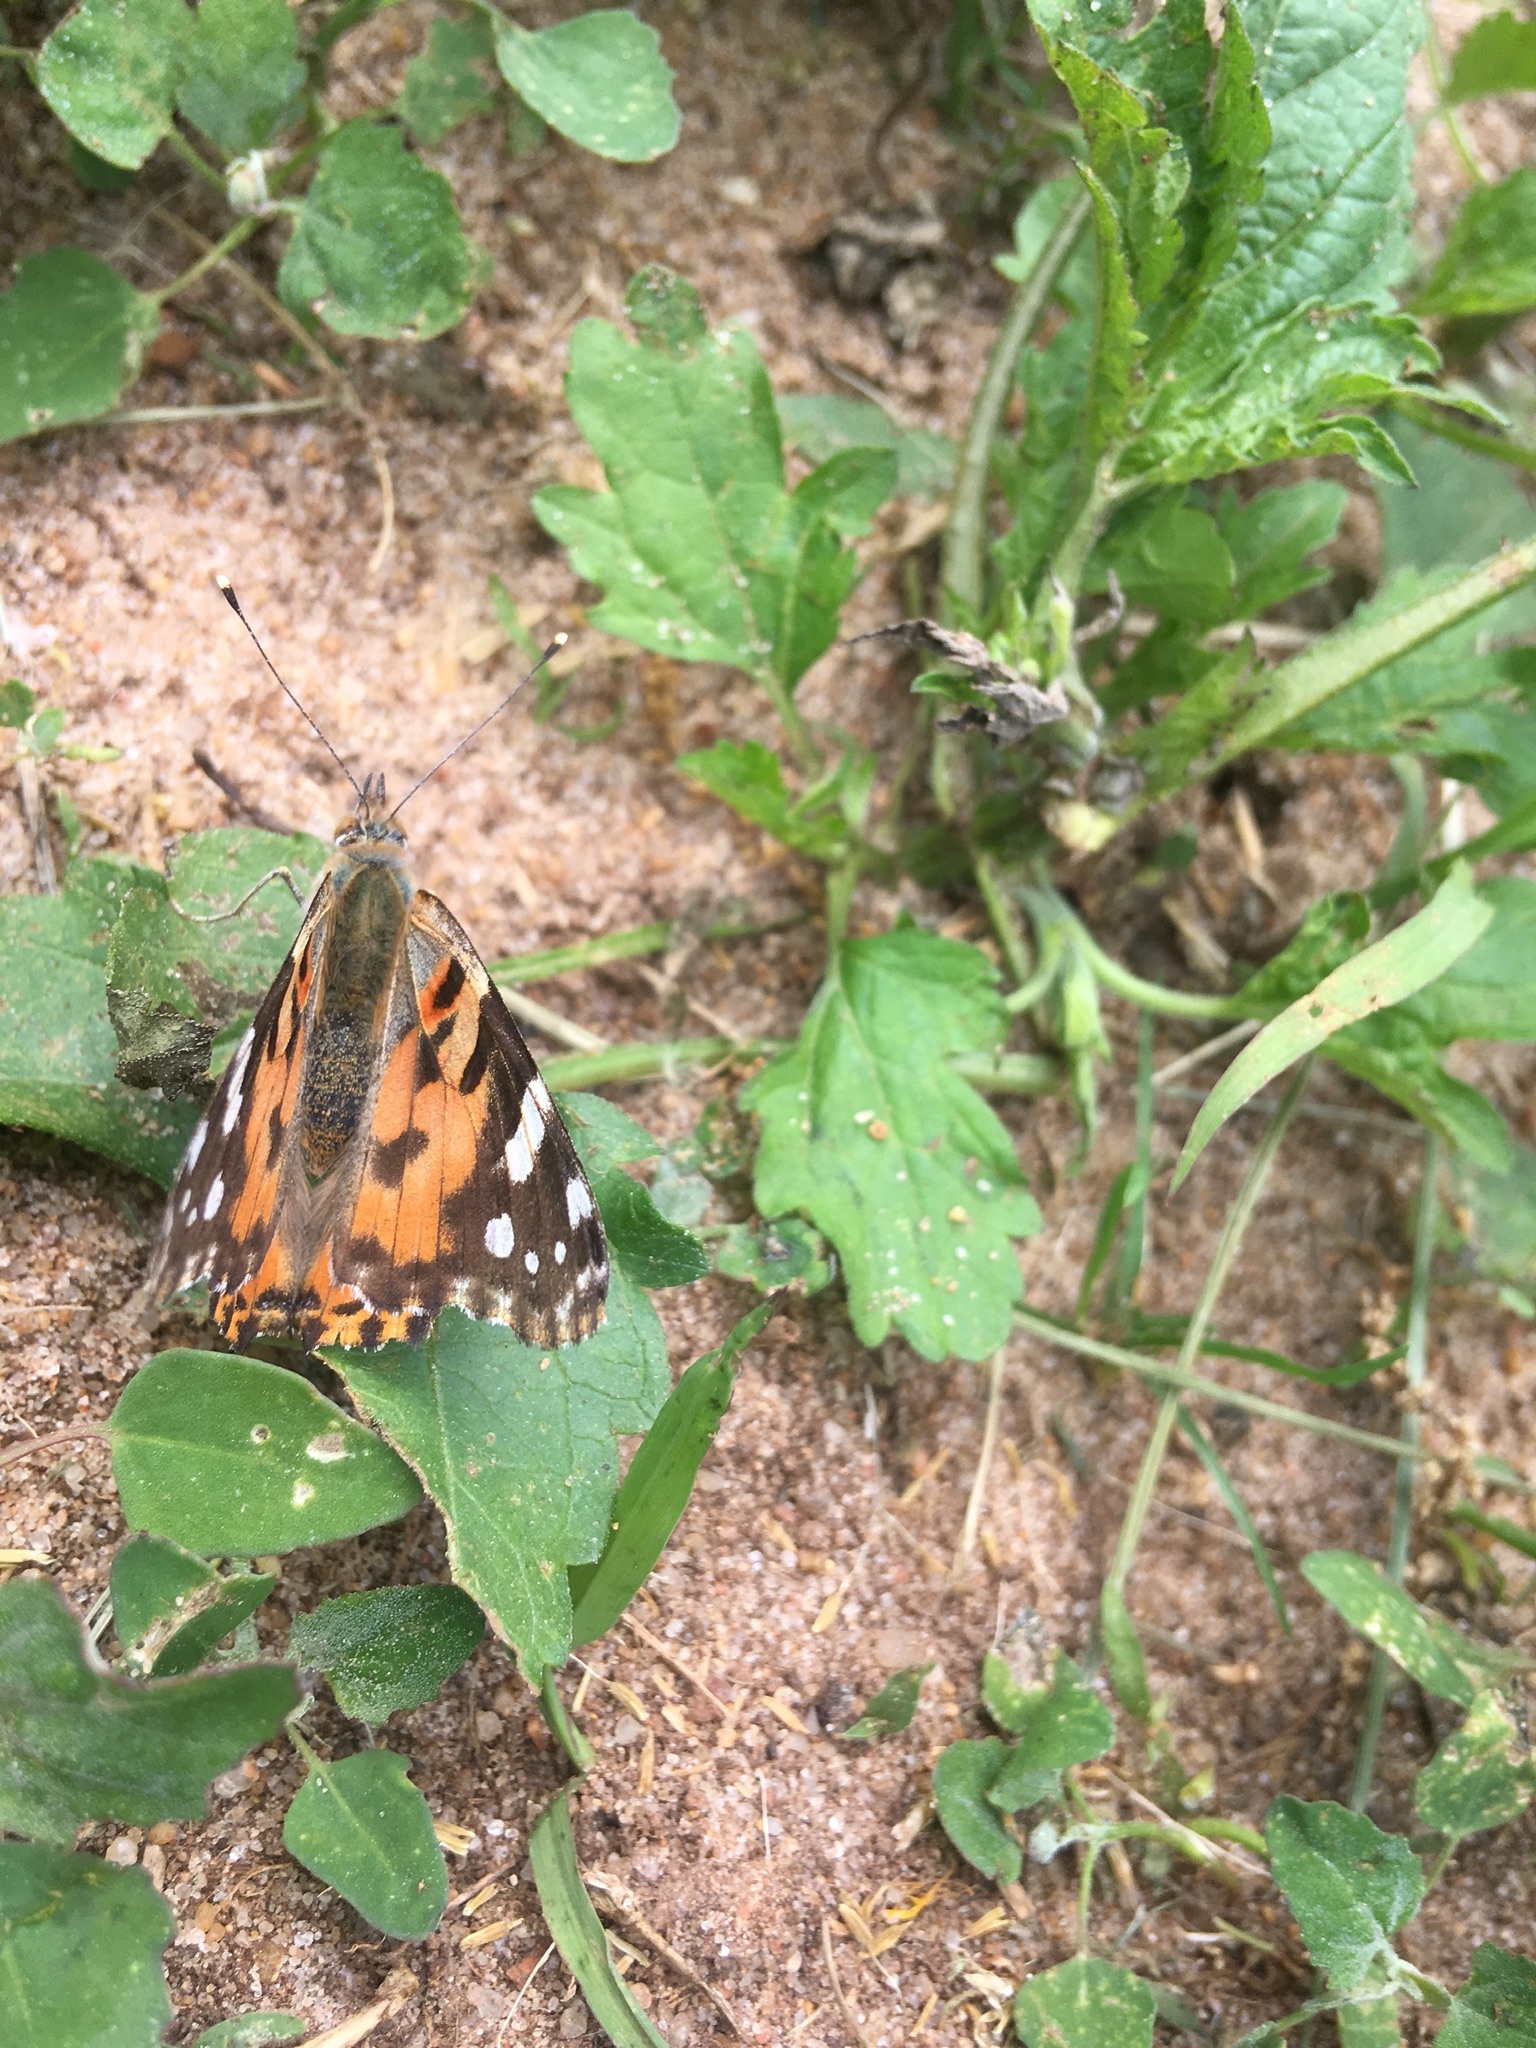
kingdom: Animalia
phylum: Arthropoda
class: Insecta
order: Lepidoptera
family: Nymphalidae
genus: Vanessa
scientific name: Vanessa cardui
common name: Painted lady
